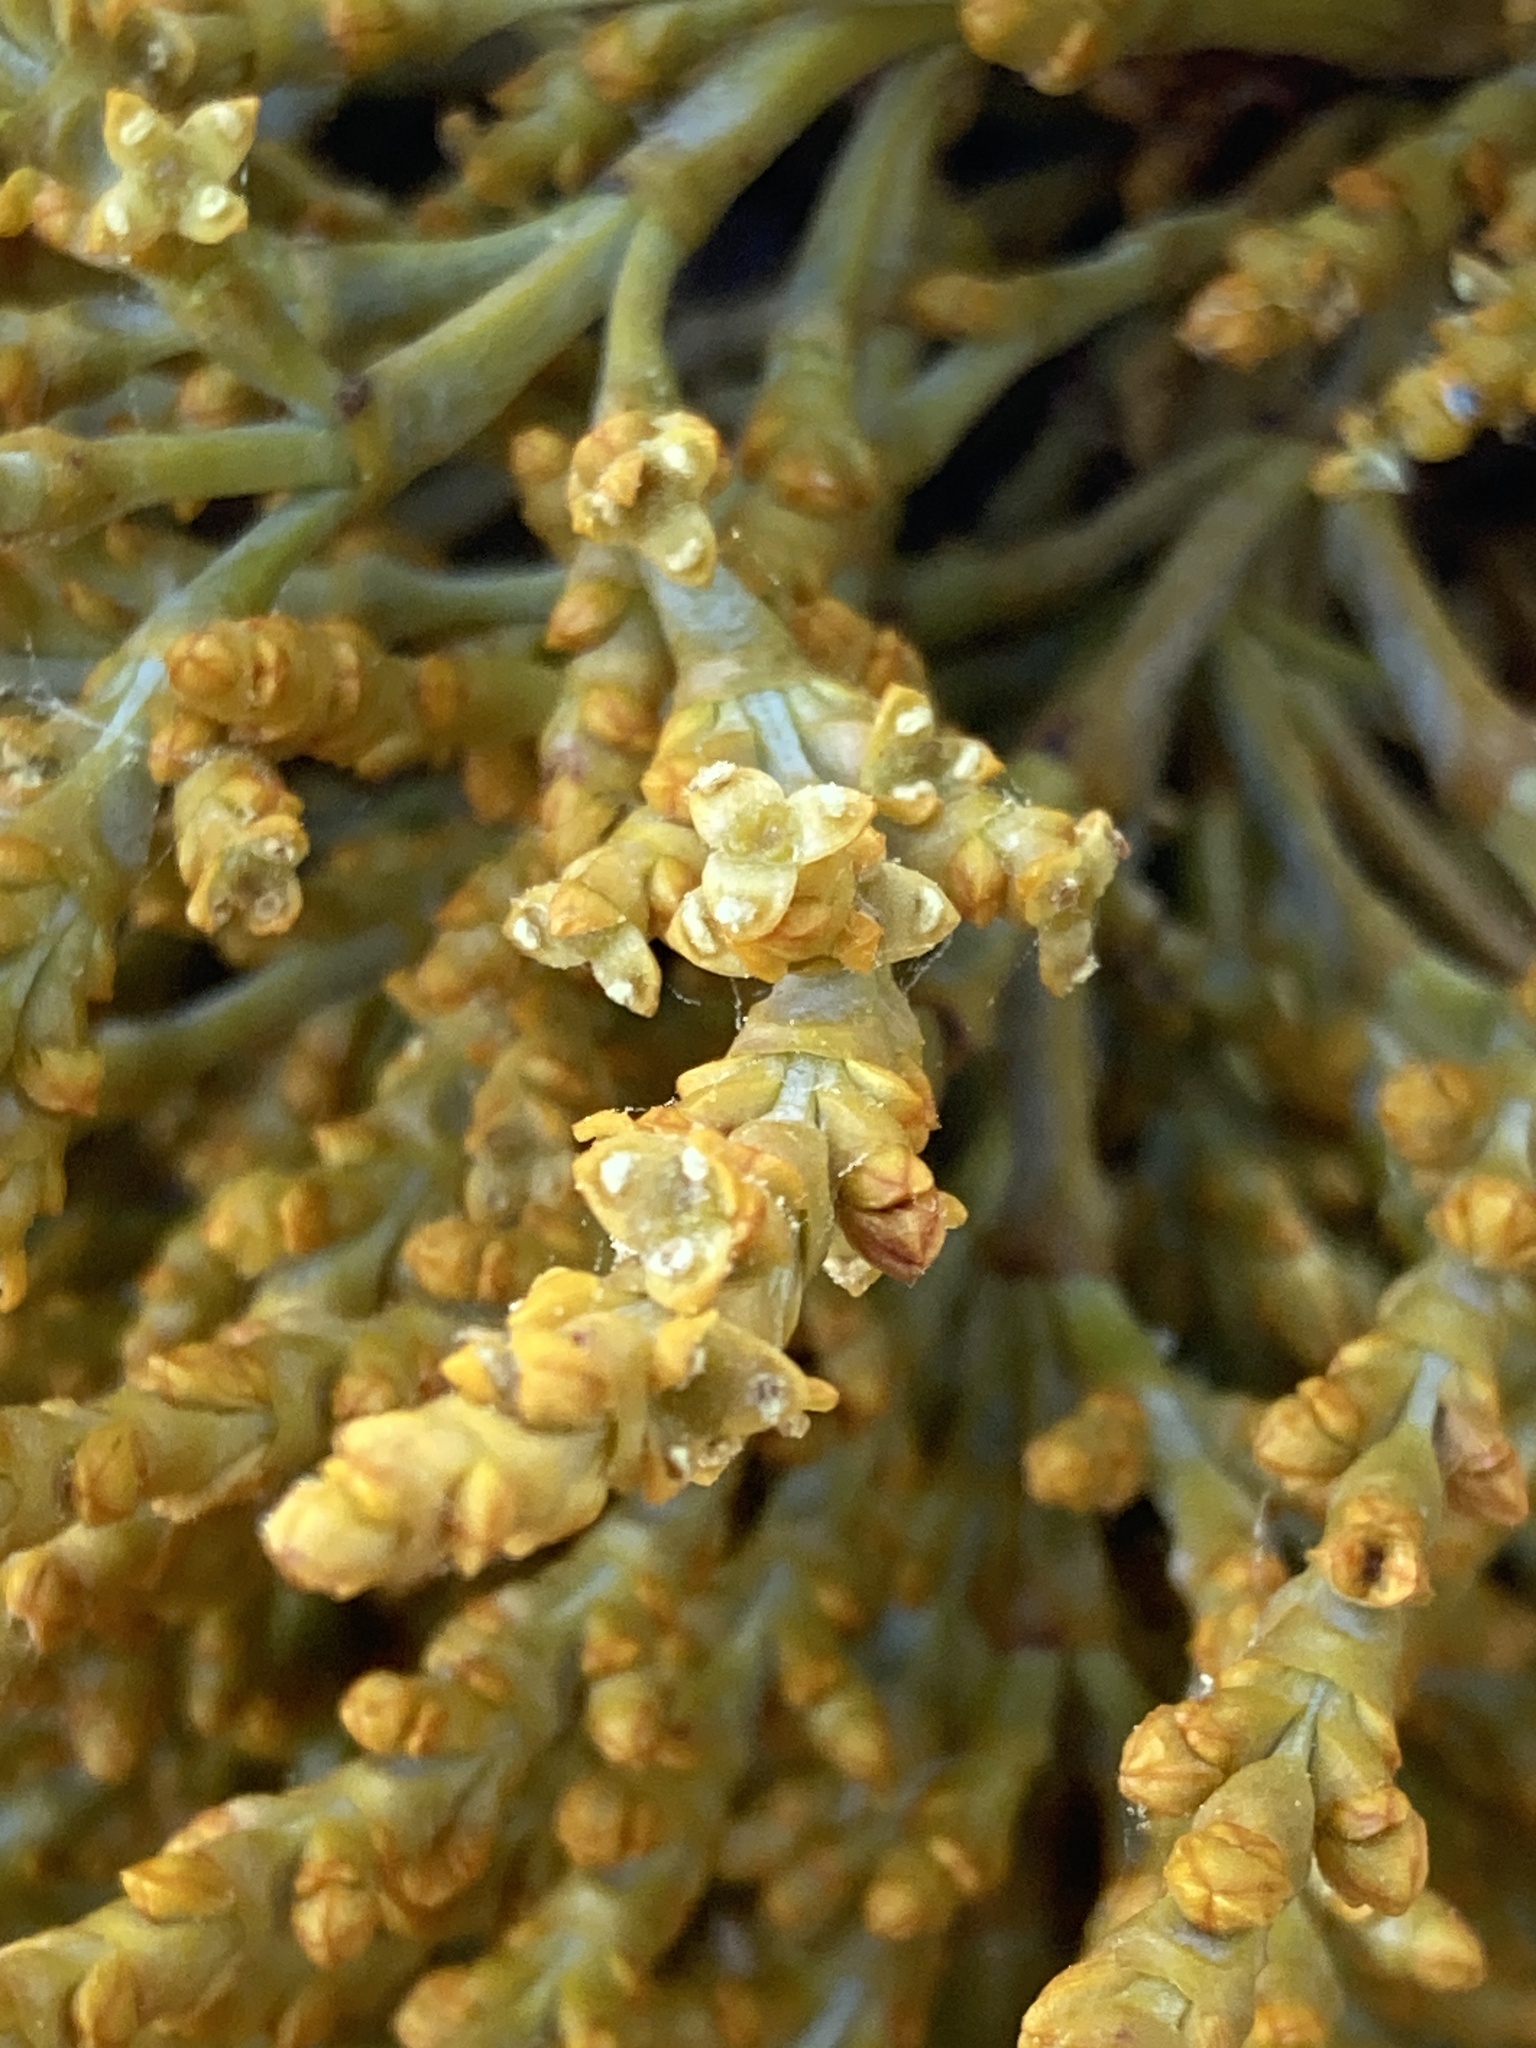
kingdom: Plantae
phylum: Tracheophyta
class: Magnoliopsida
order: Santalales
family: Viscaceae
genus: Arceuthobium
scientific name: Arceuthobium campylopodum
